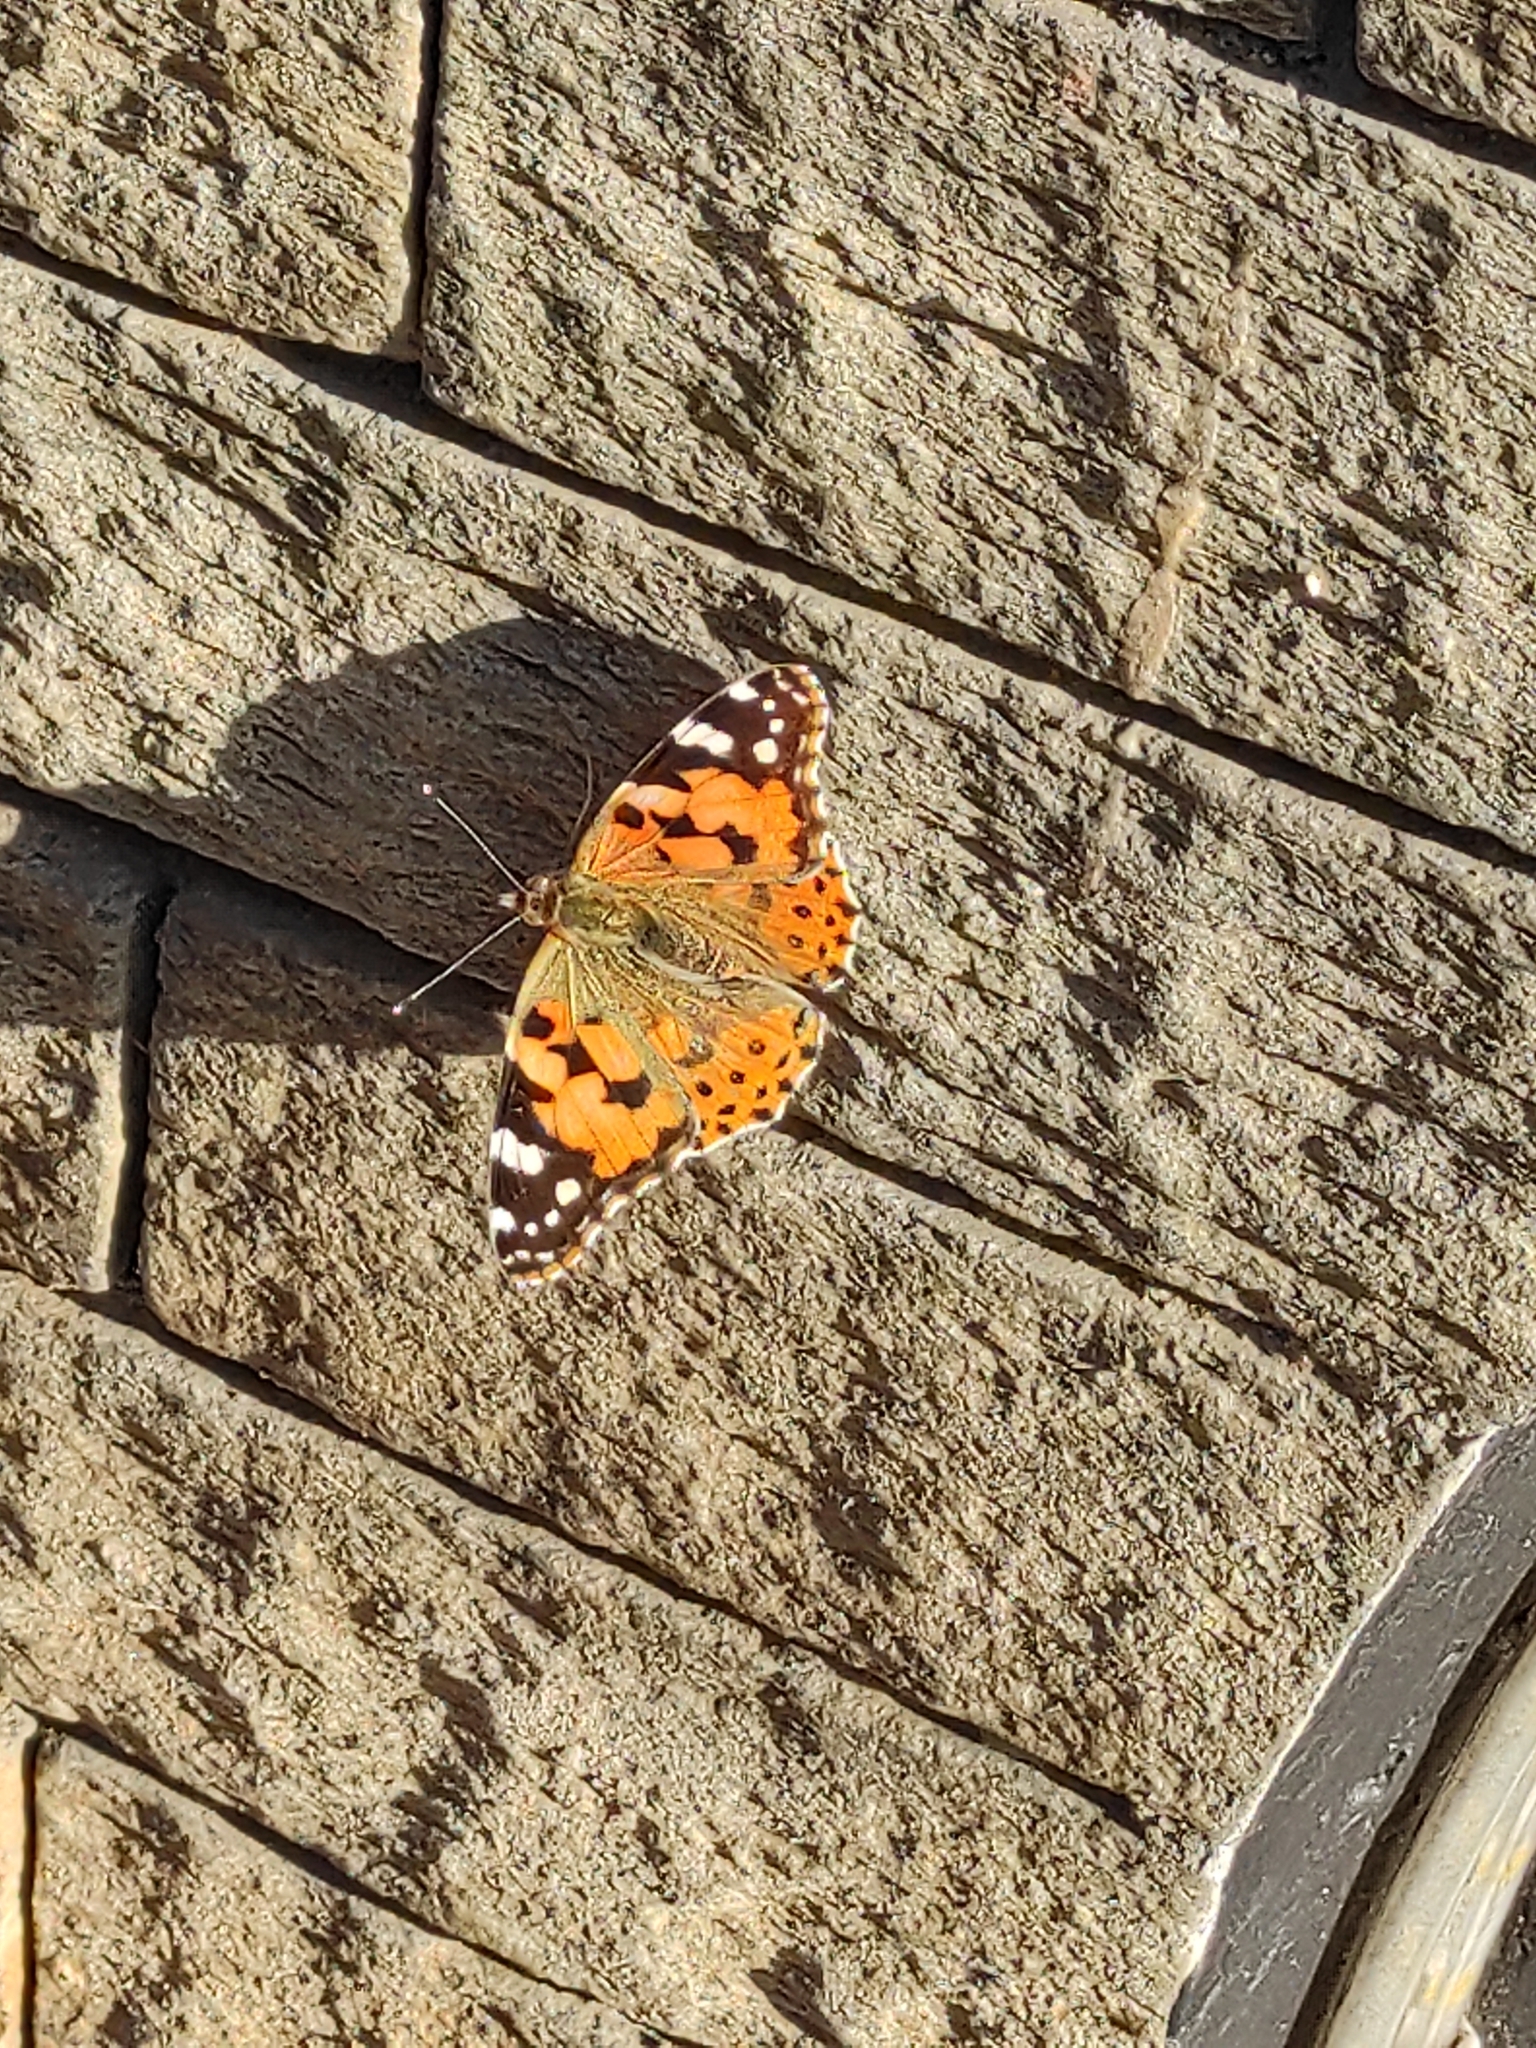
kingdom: Animalia
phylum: Arthropoda
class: Insecta
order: Lepidoptera
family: Nymphalidae
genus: Vanessa
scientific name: Vanessa cardui
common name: Painted lady
